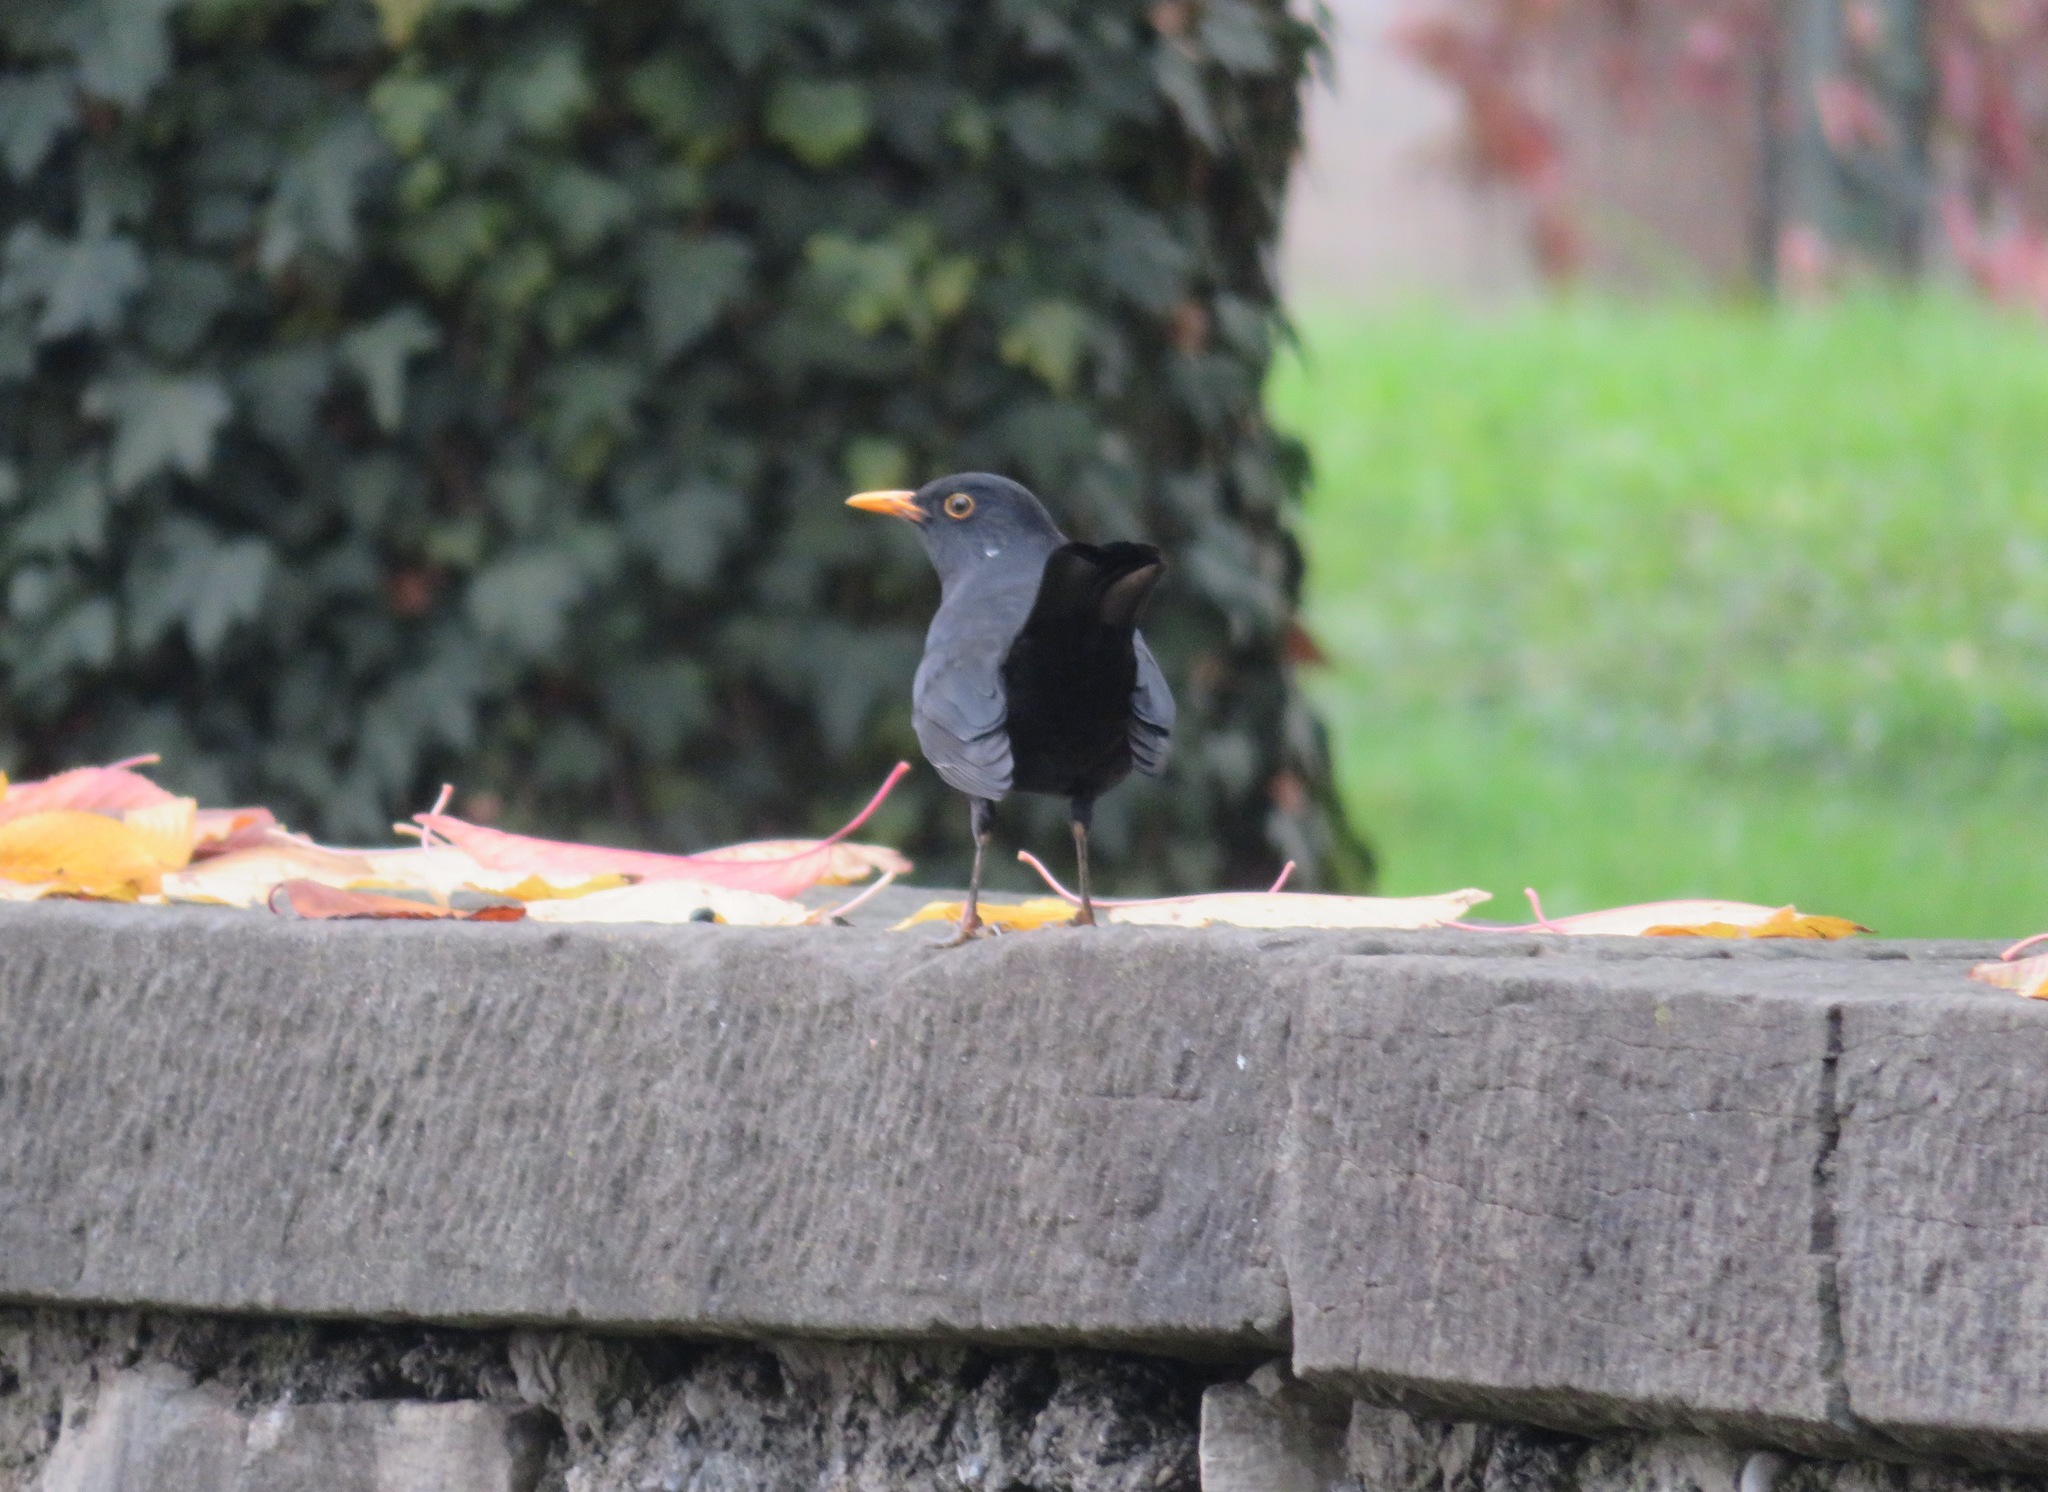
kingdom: Animalia
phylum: Chordata
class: Aves
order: Passeriformes
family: Turdidae
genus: Turdus
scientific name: Turdus merula
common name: Common blackbird
